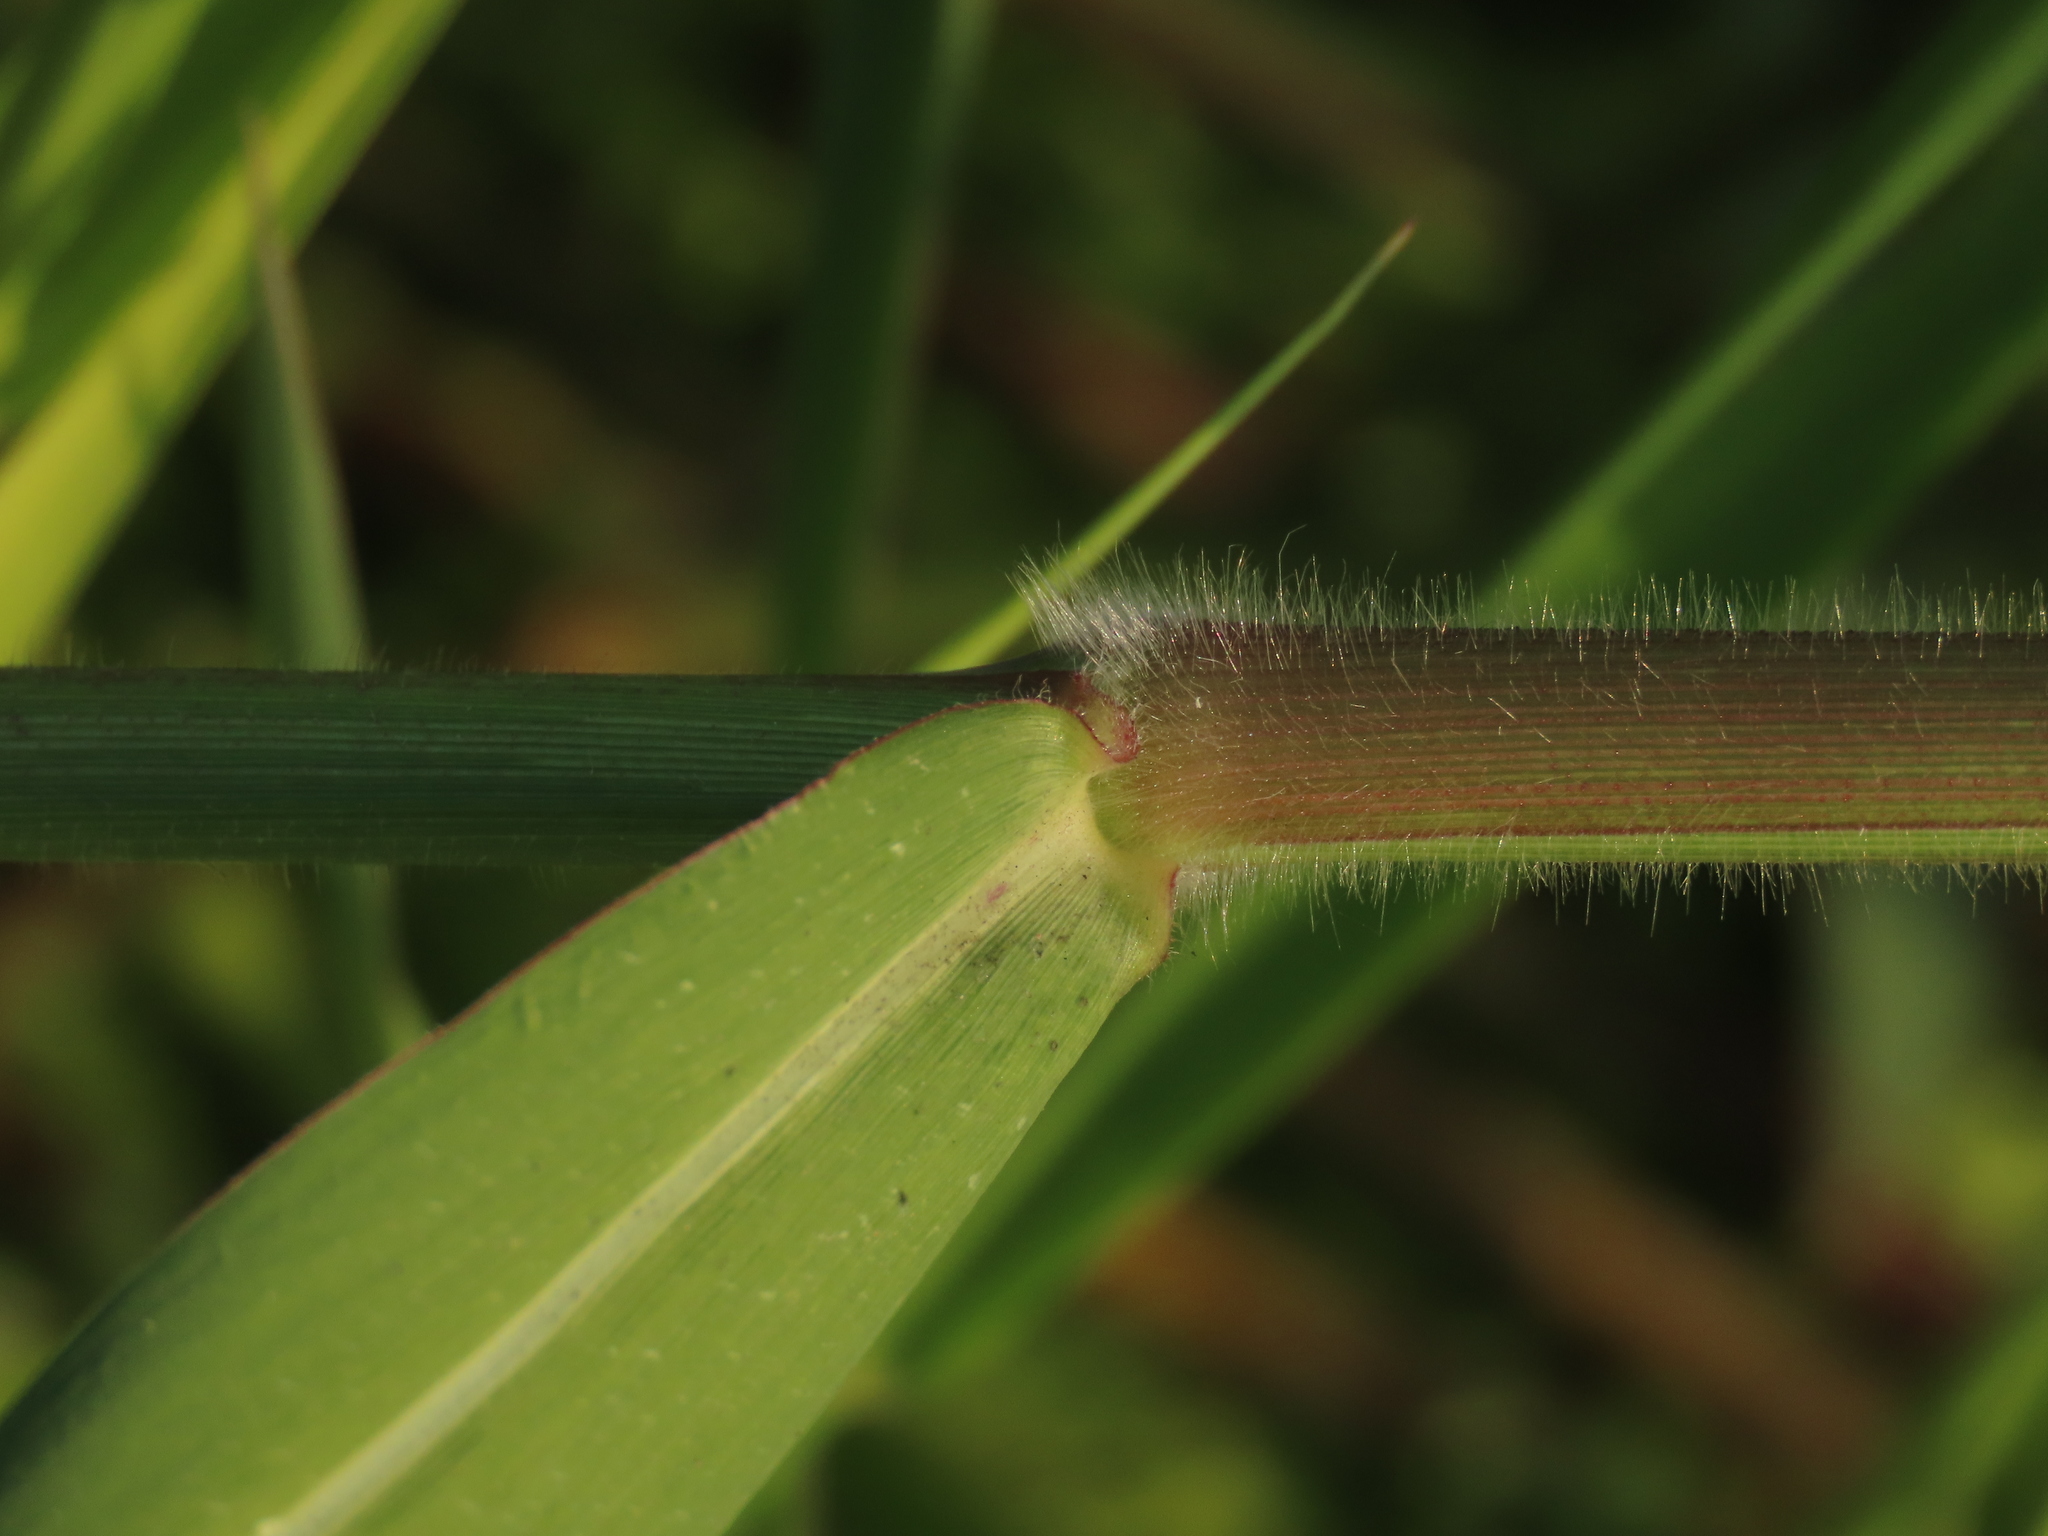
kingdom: Plantae
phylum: Tracheophyta
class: Liliopsida
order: Poales
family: Poaceae
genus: Urochloa
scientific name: Urochloa mutica
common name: Para grass
